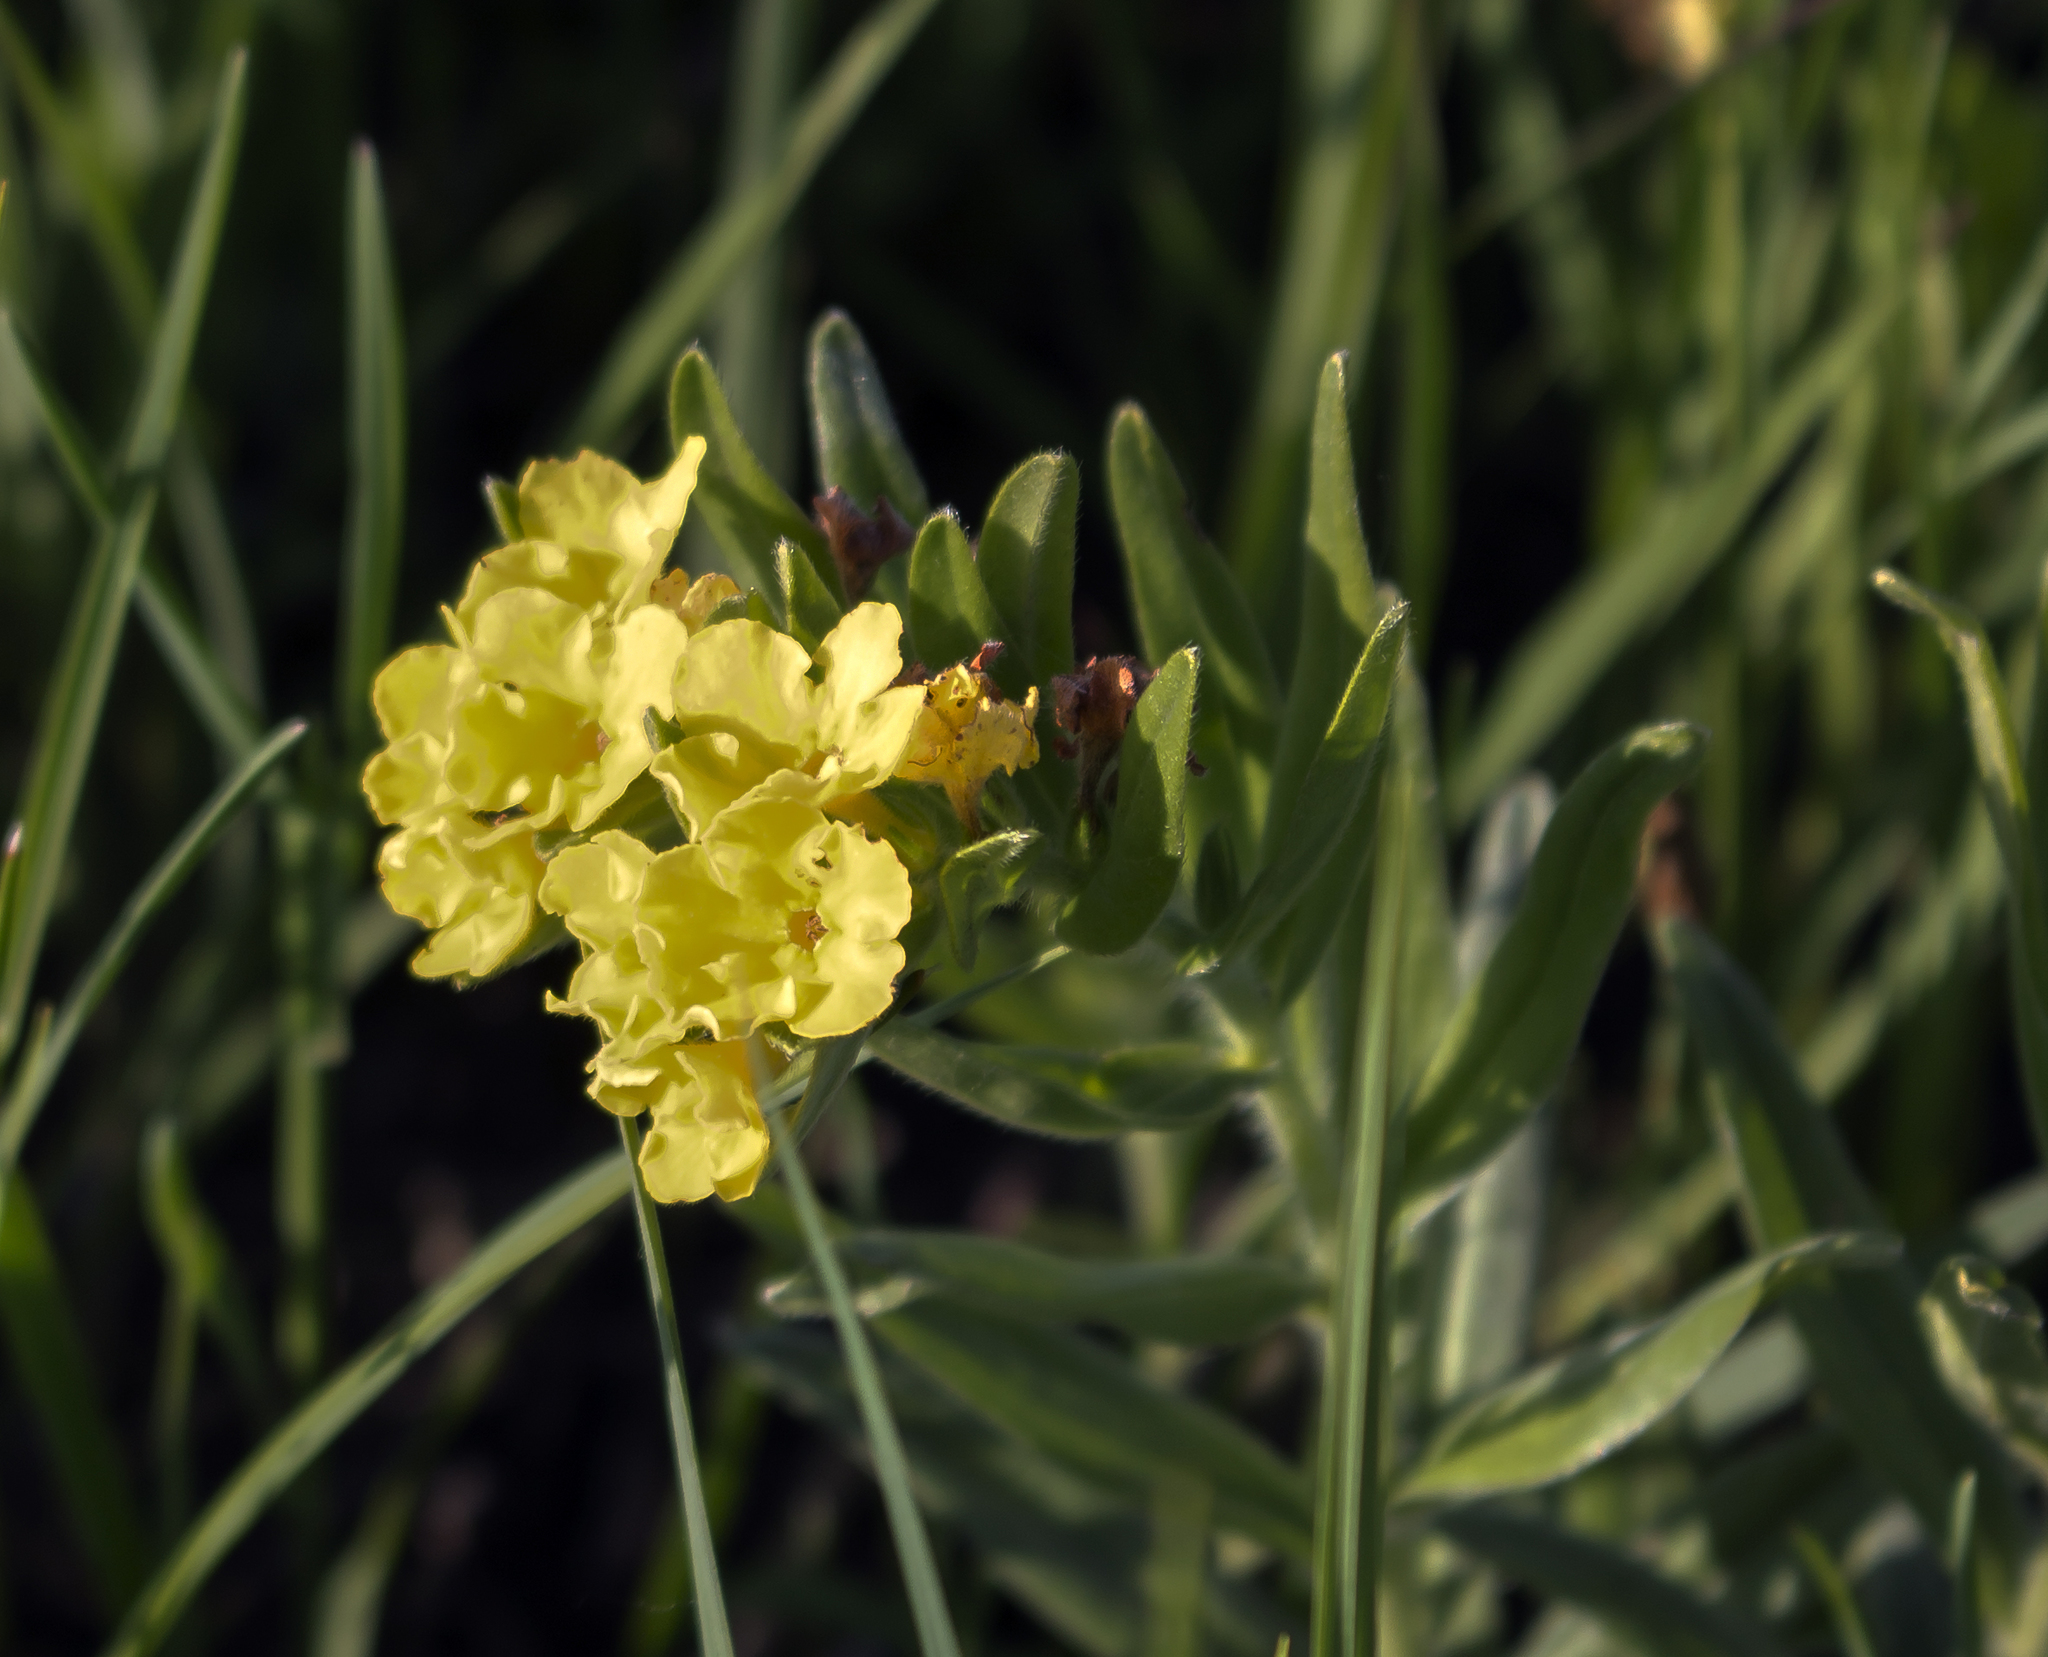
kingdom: Plantae
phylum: Tracheophyta
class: Magnoliopsida
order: Boraginales
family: Boraginaceae
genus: Lithospermum
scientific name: Lithospermum canescens
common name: Hoary puccoon
